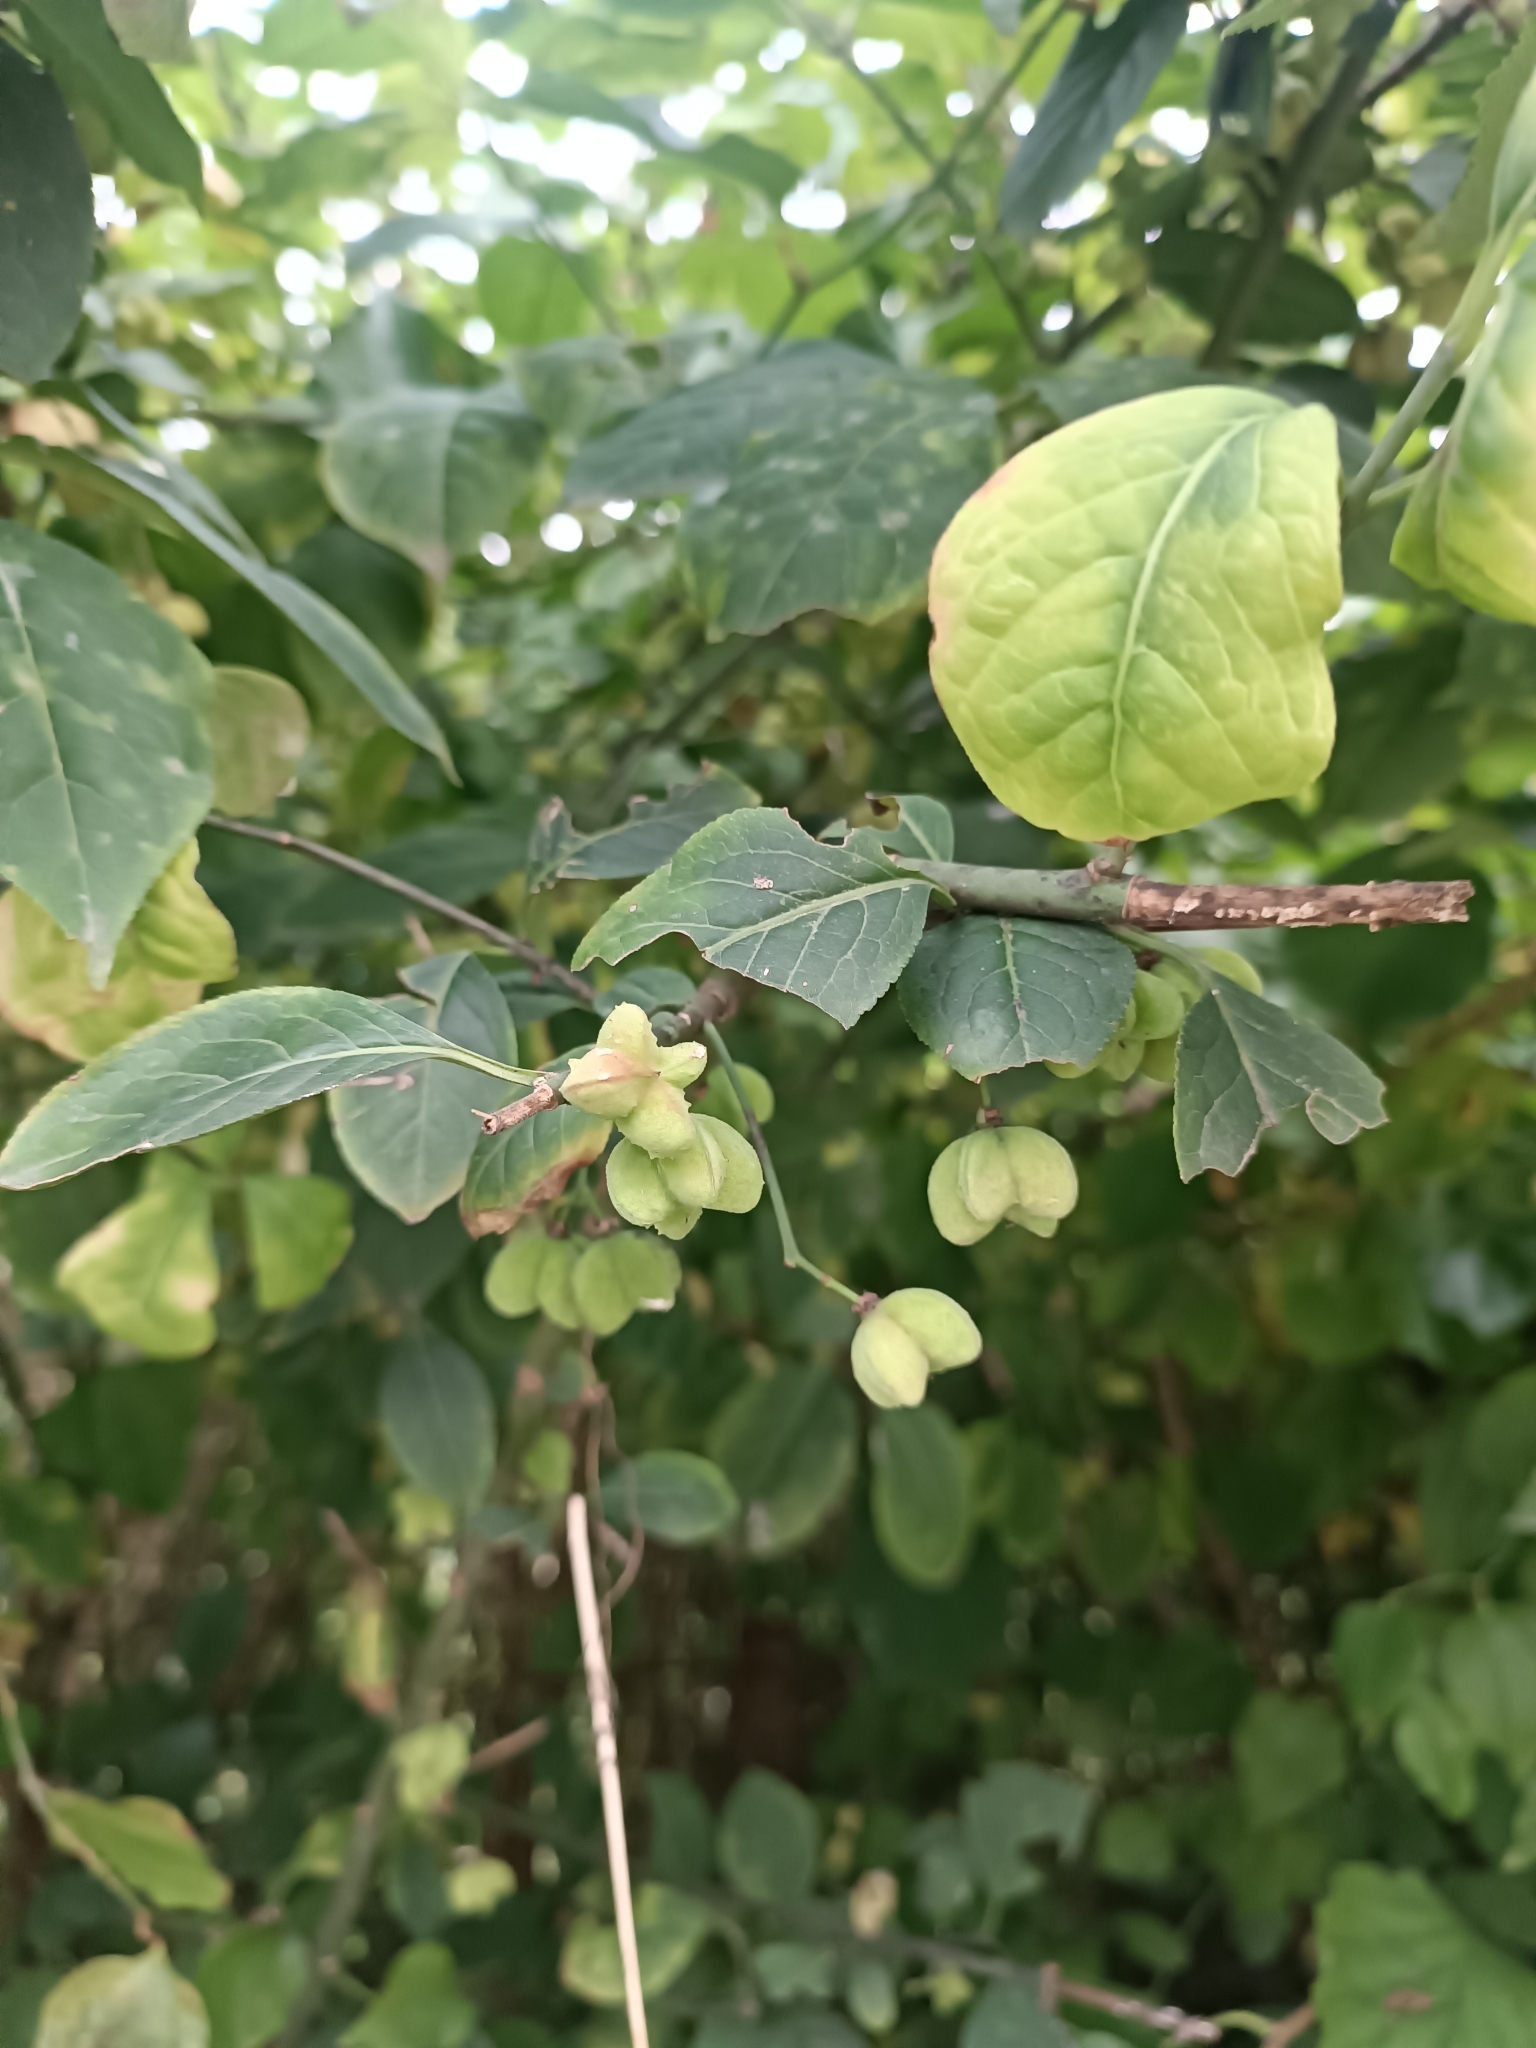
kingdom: Plantae
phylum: Tracheophyta
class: Magnoliopsida
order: Celastrales
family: Celastraceae
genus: Euonymus
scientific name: Euonymus europaeus
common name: Spindle
